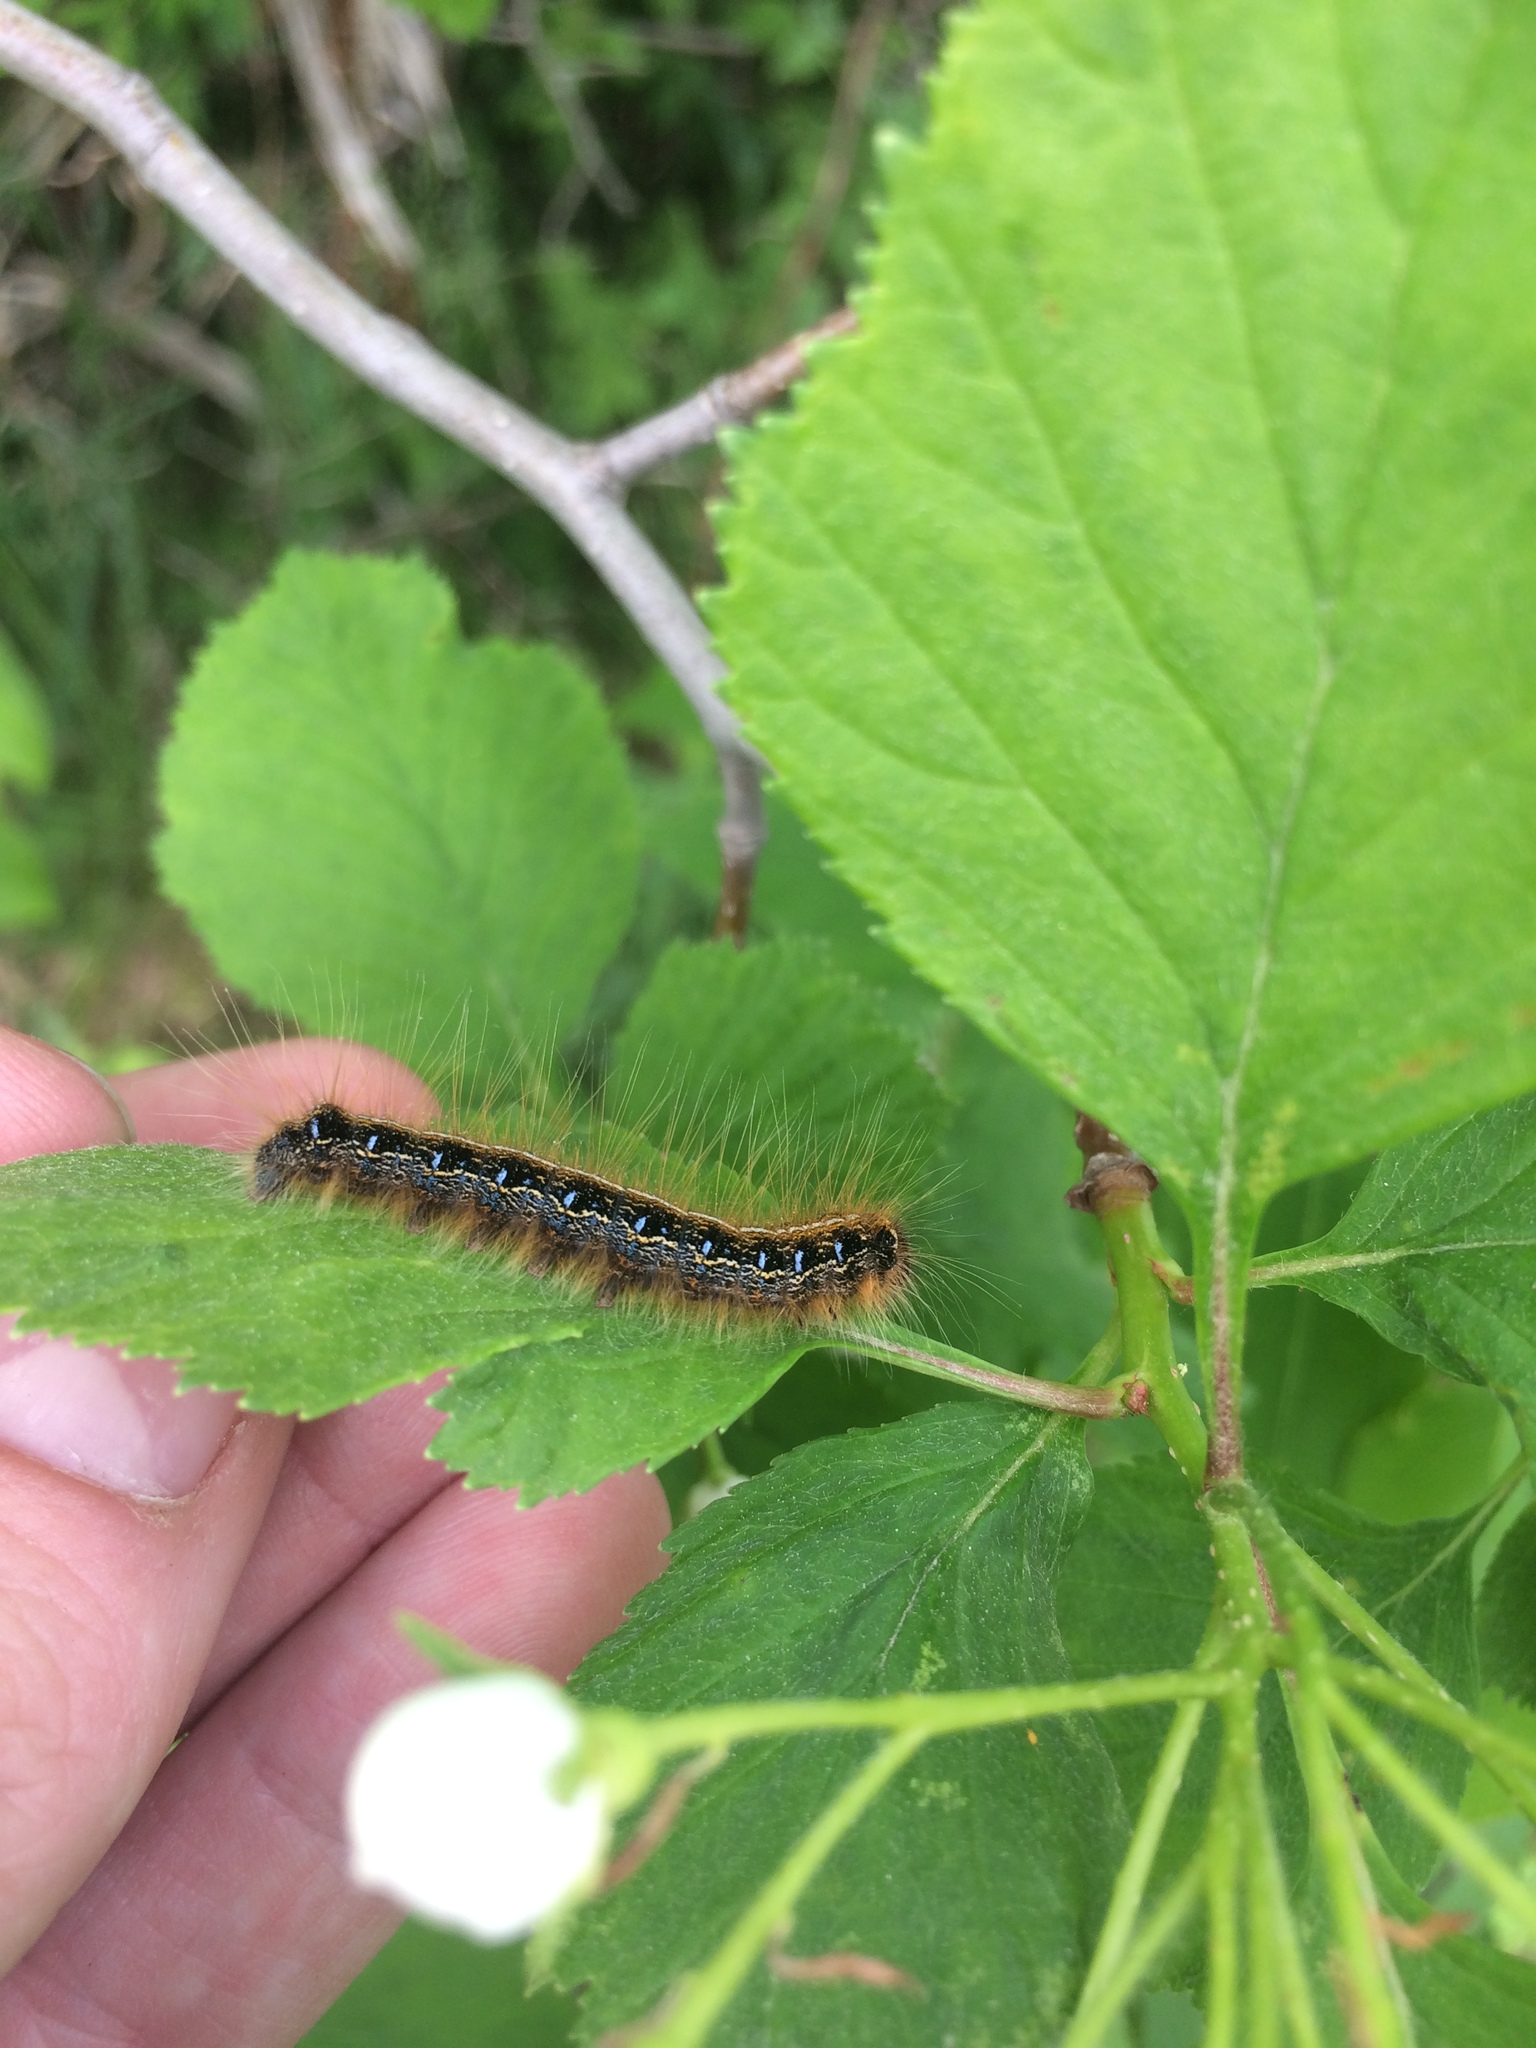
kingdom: Animalia
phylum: Arthropoda
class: Insecta
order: Lepidoptera
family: Lasiocampidae
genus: Malacosoma
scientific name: Malacosoma americana
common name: Eastern tent caterpillar moth
